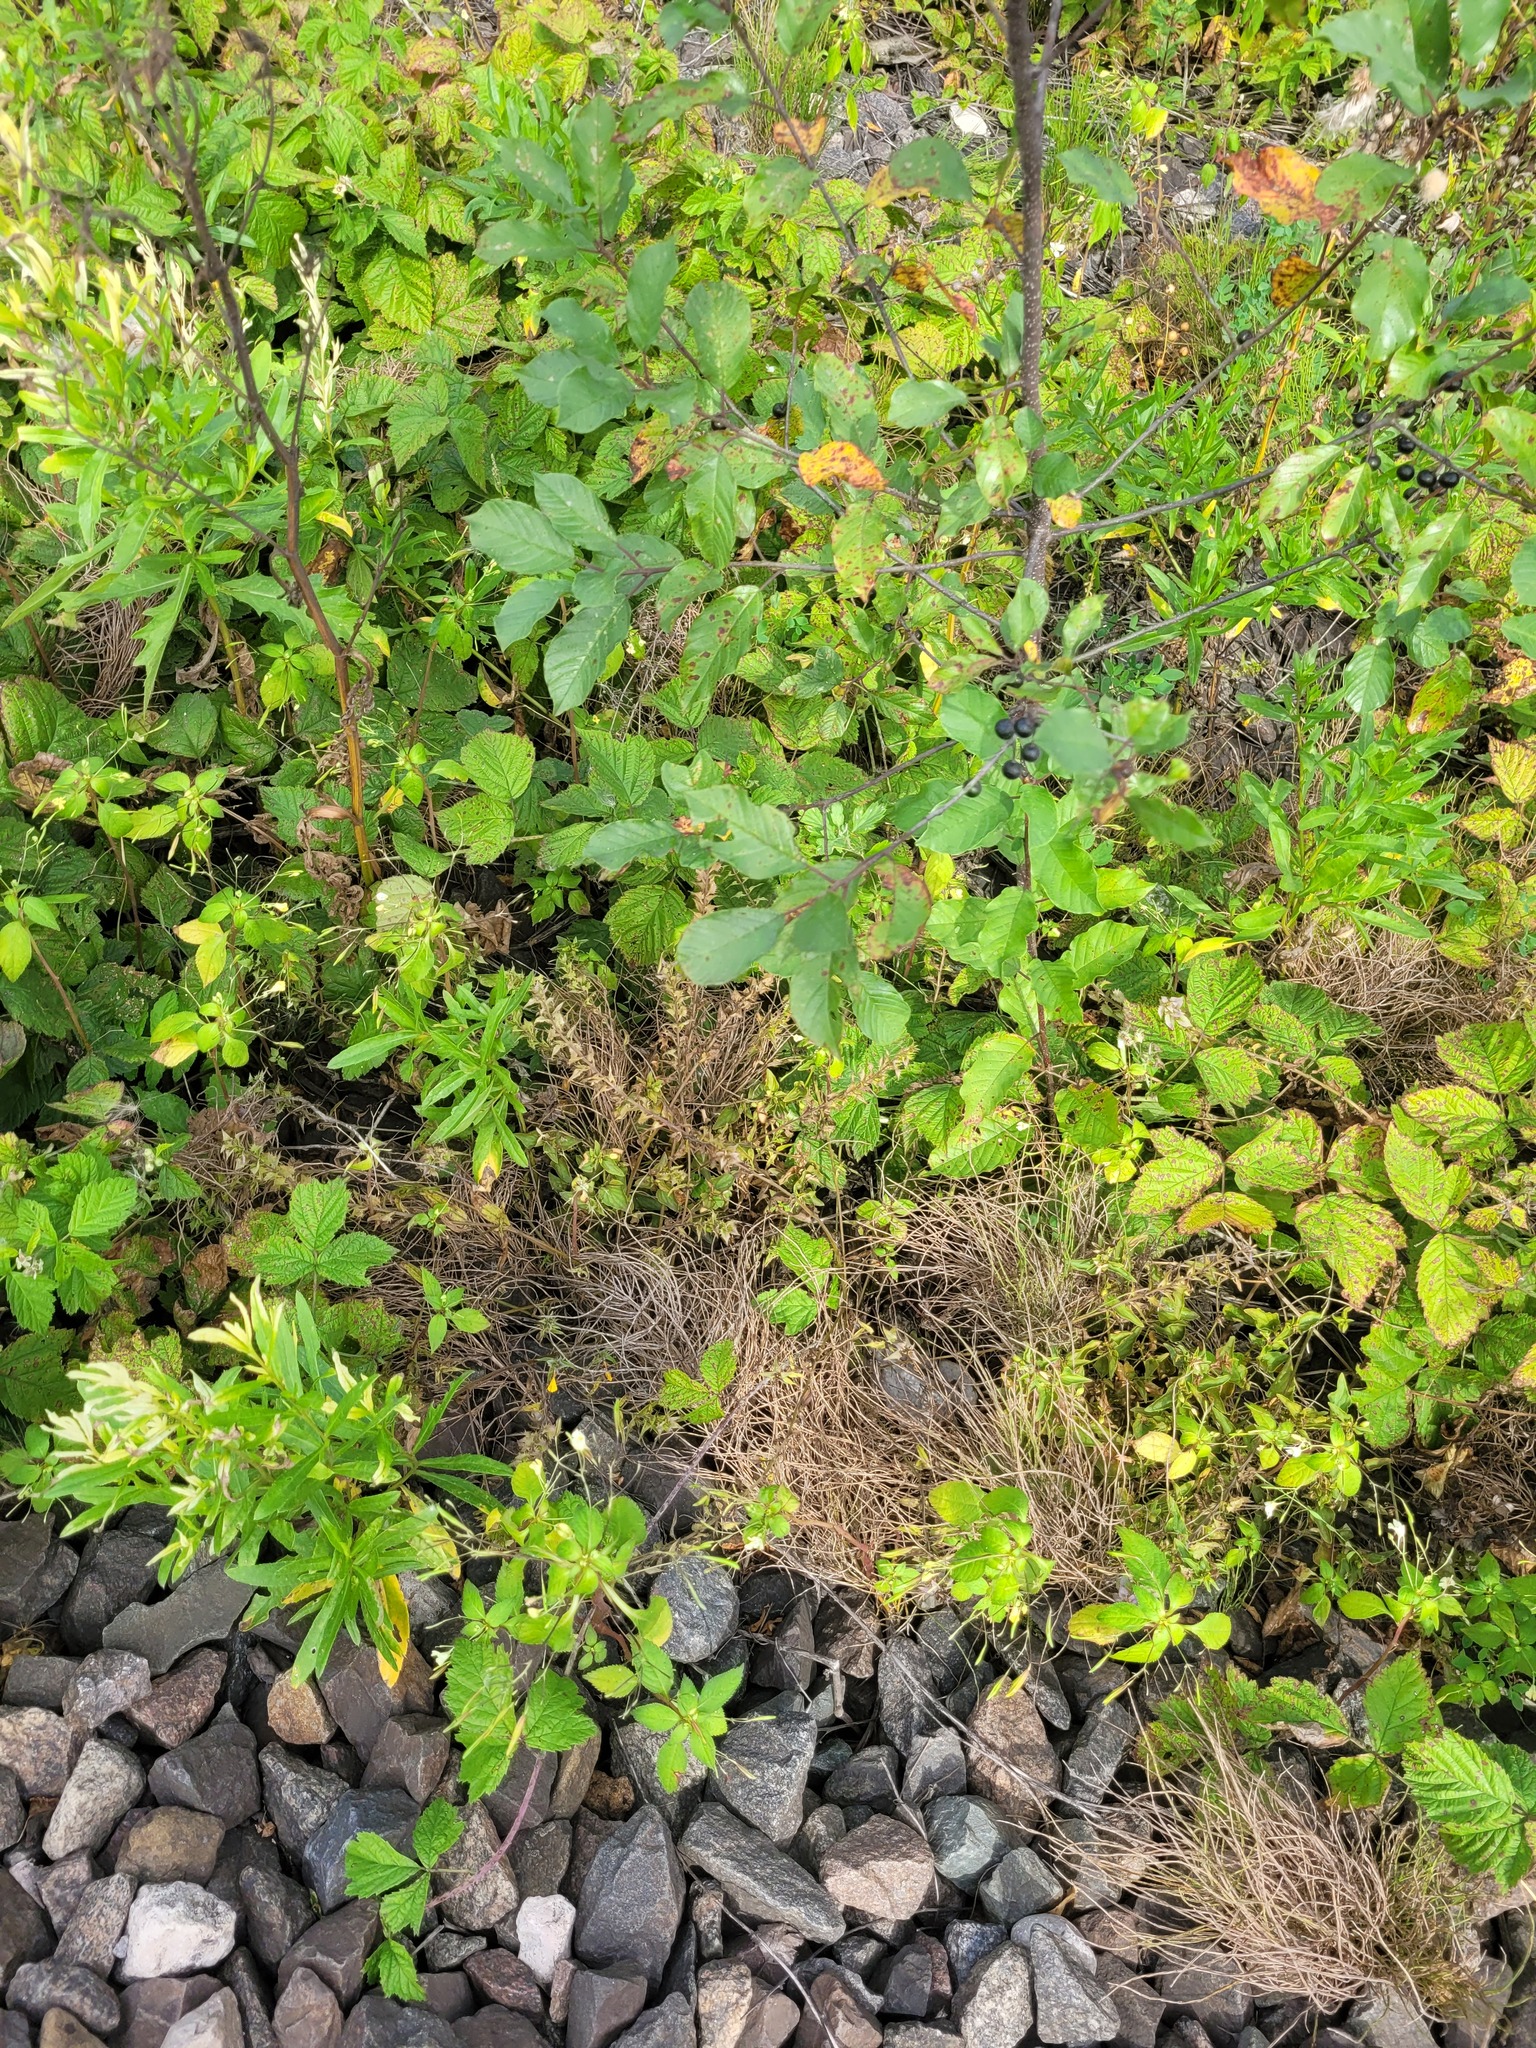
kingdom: Plantae
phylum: Tracheophyta
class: Magnoliopsida
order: Lamiales
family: Orobanchaceae
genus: Melampyrum
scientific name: Melampyrum nemorosum
